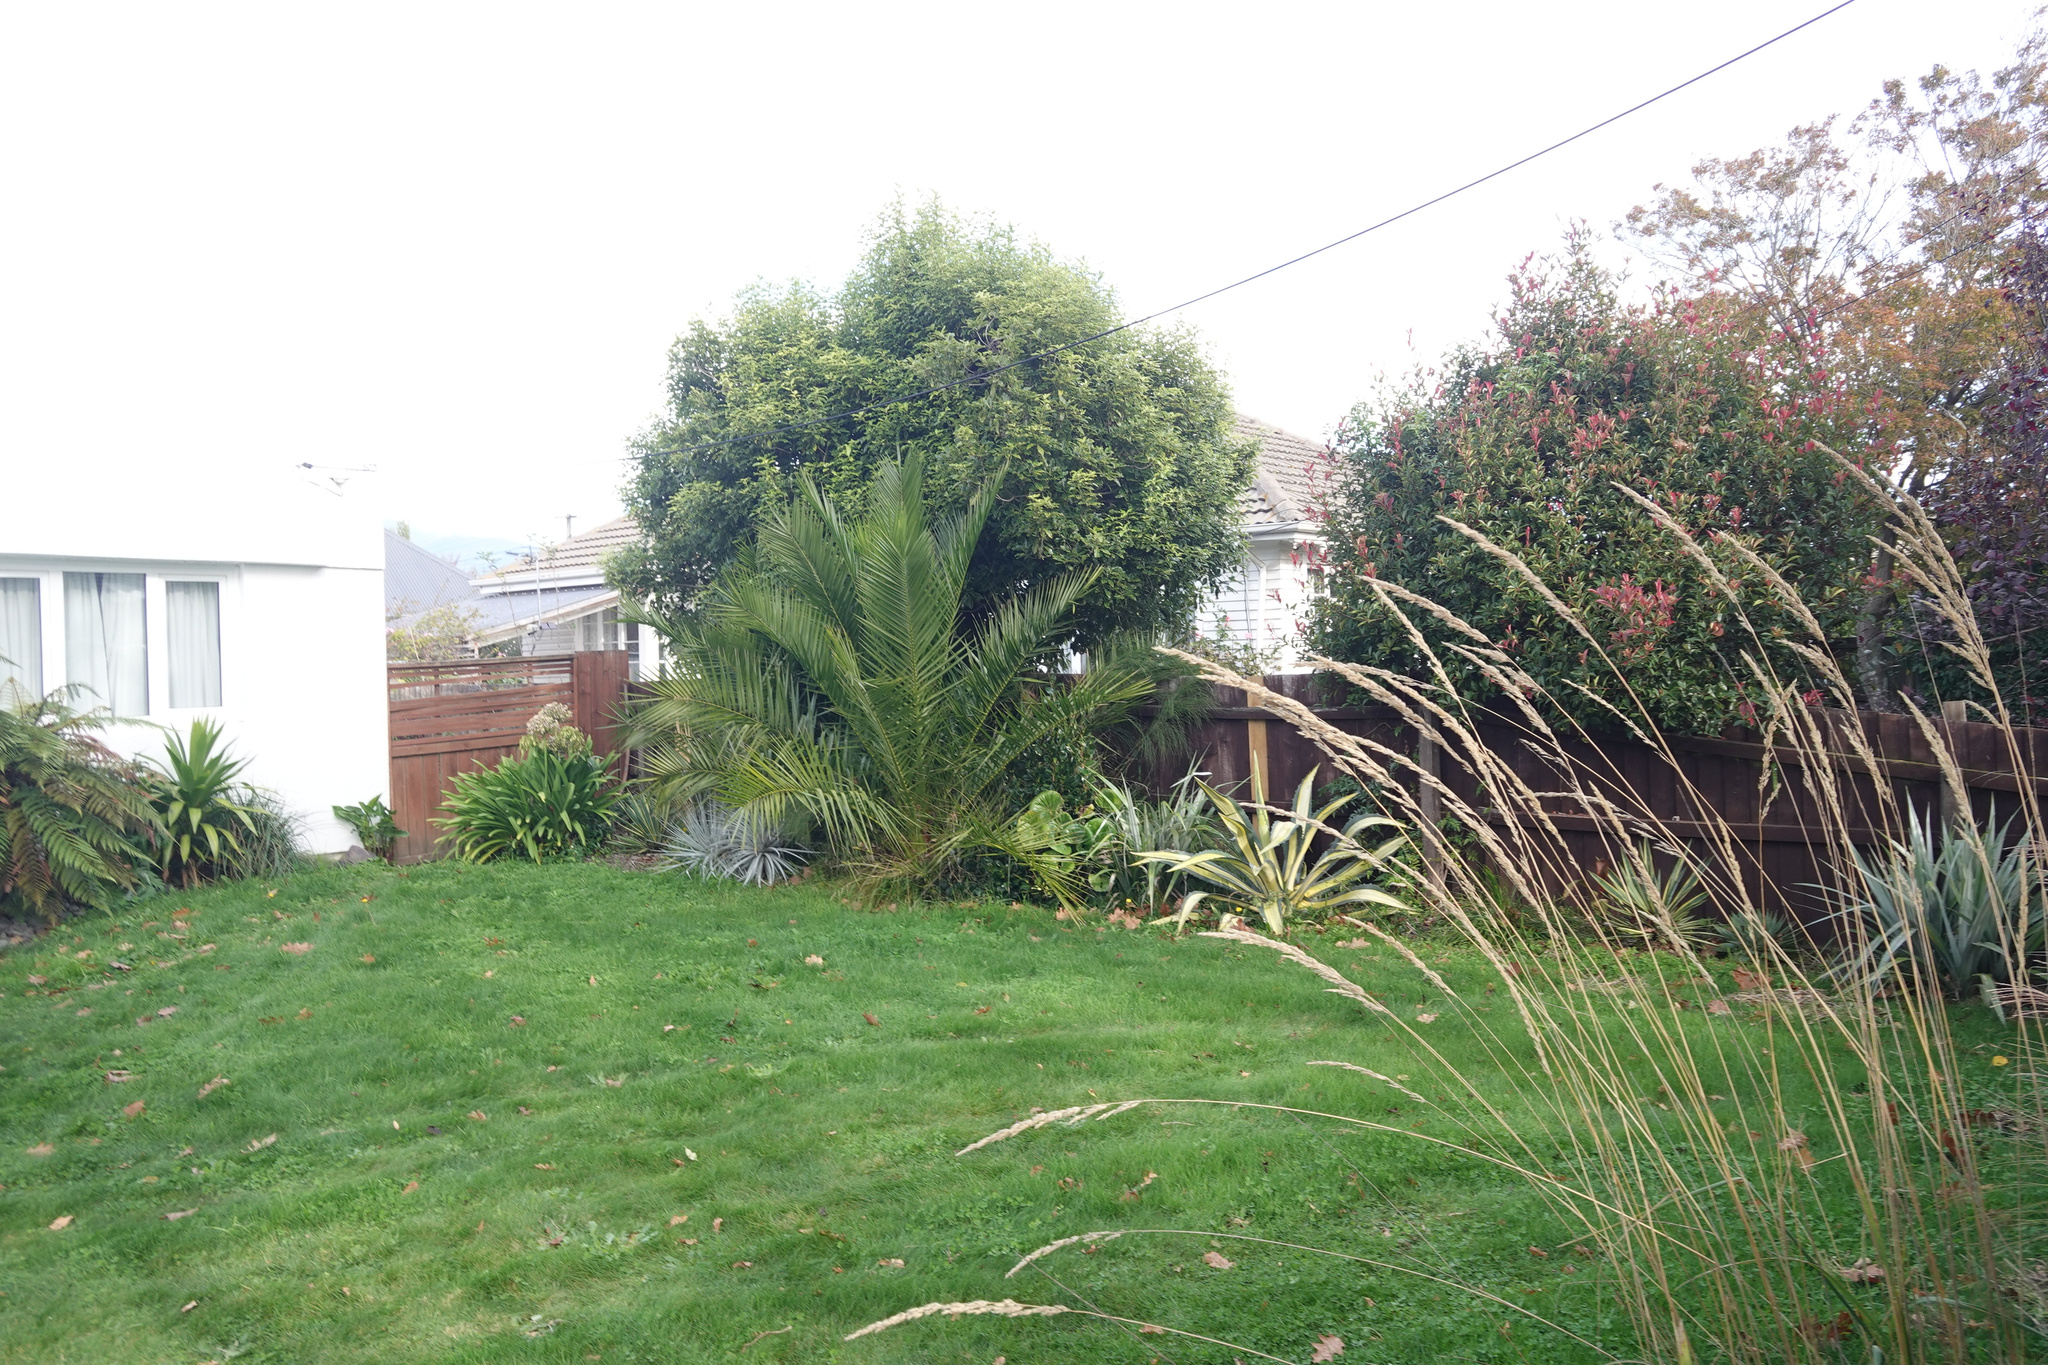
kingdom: Plantae
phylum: Tracheophyta
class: Liliopsida
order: Arecales
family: Arecaceae
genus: Phoenix
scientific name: Phoenix canariensis
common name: Canary island date palm
